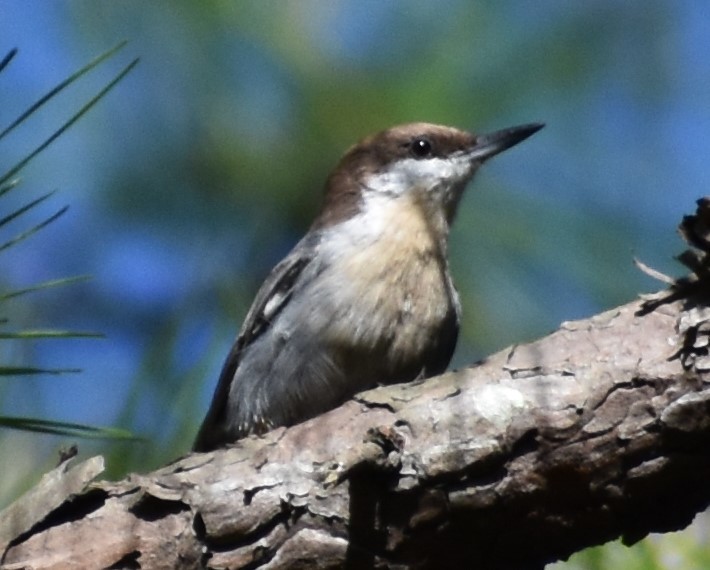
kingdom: Animalia
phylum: Chordata
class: Aves
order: Passeriformes
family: Sittidae
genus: Sitta
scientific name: Sitta pusilla
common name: Brown-headed nuthatch
